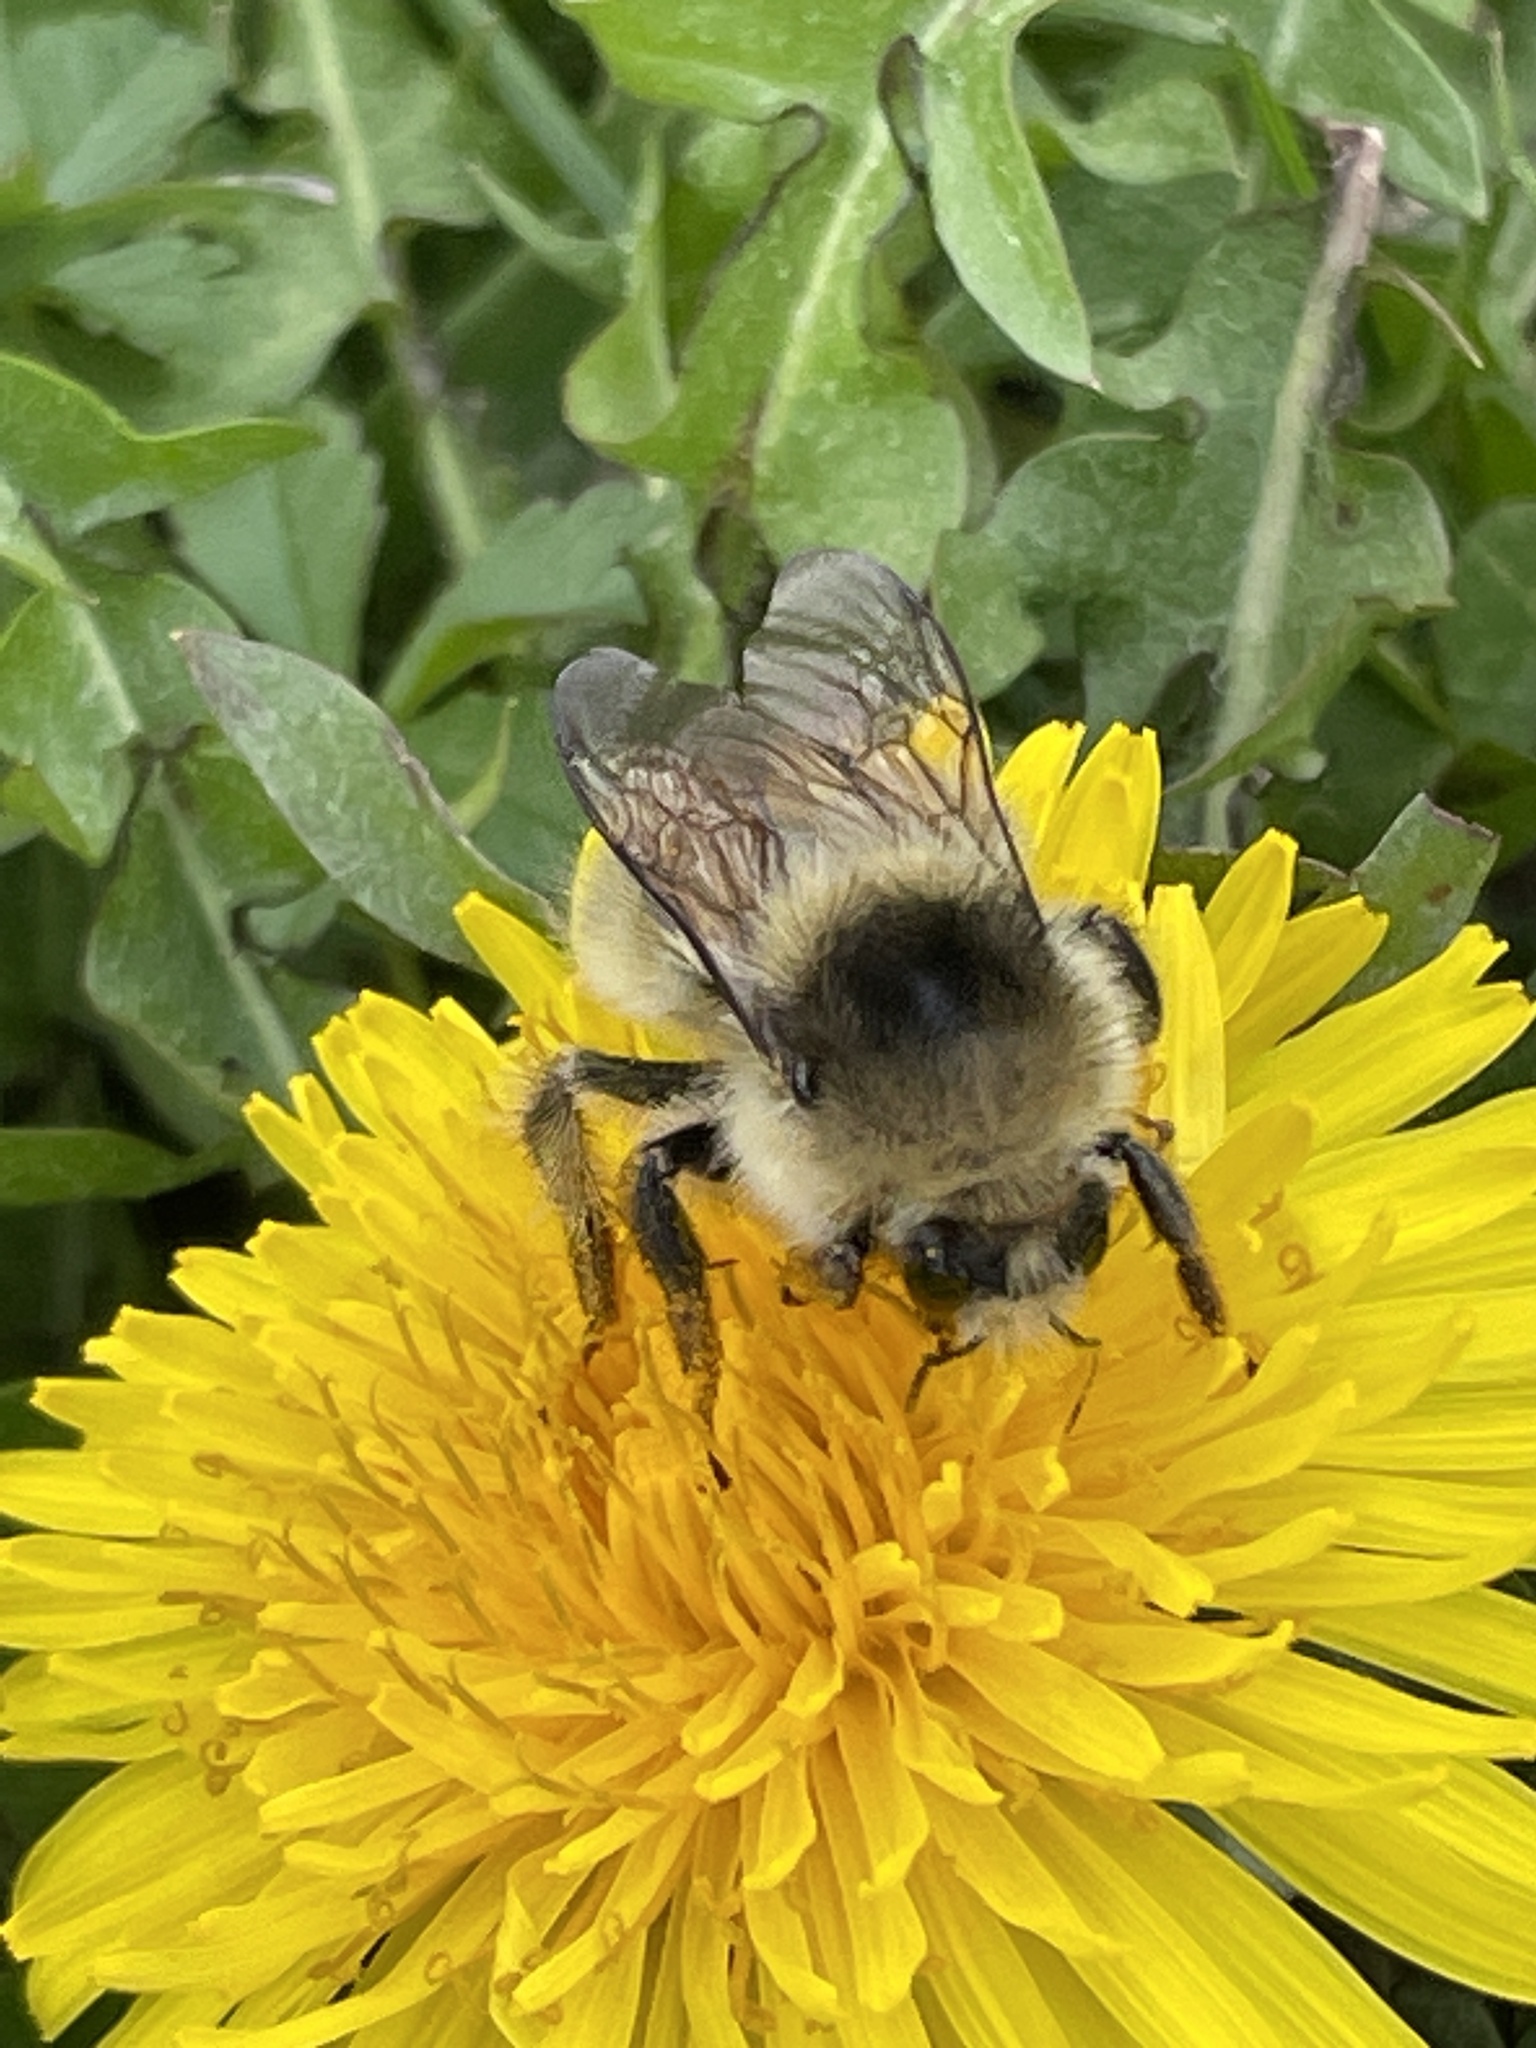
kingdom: Animalia
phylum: Arthropoda
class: Insecta
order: Hymenoptera
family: Apidae
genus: Bombus
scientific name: Bombus veteranus
